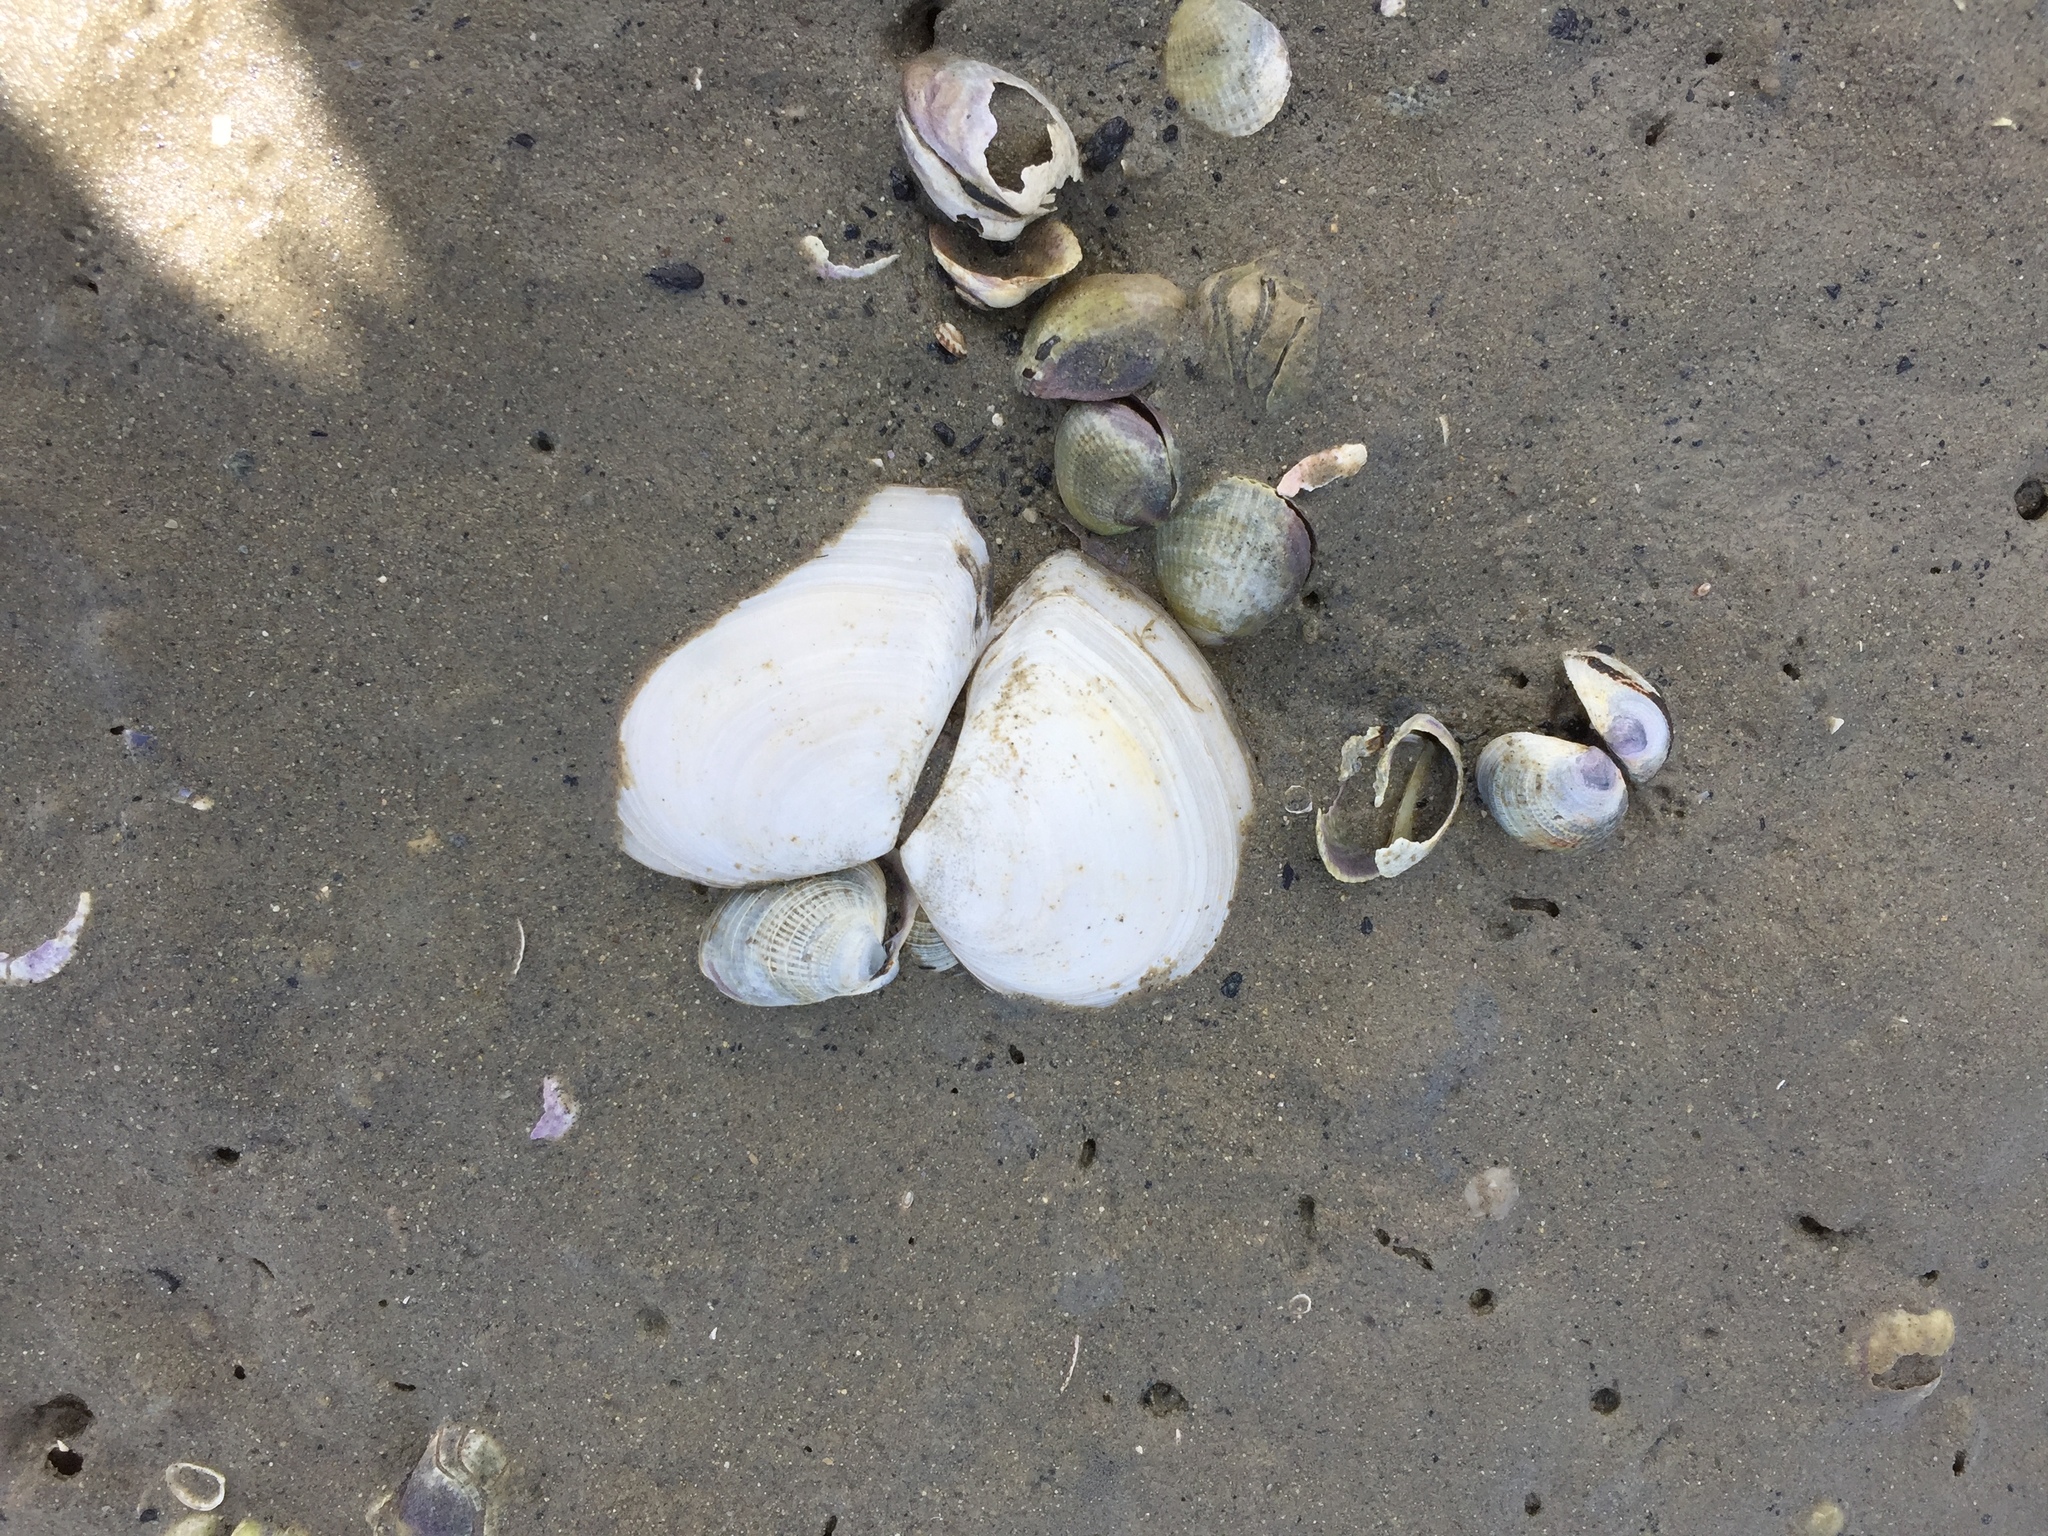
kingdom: Animalia
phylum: Mollusca
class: Bivalvia
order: Cardiida
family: Tellinidae
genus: Macomona
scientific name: Macomona liliana
